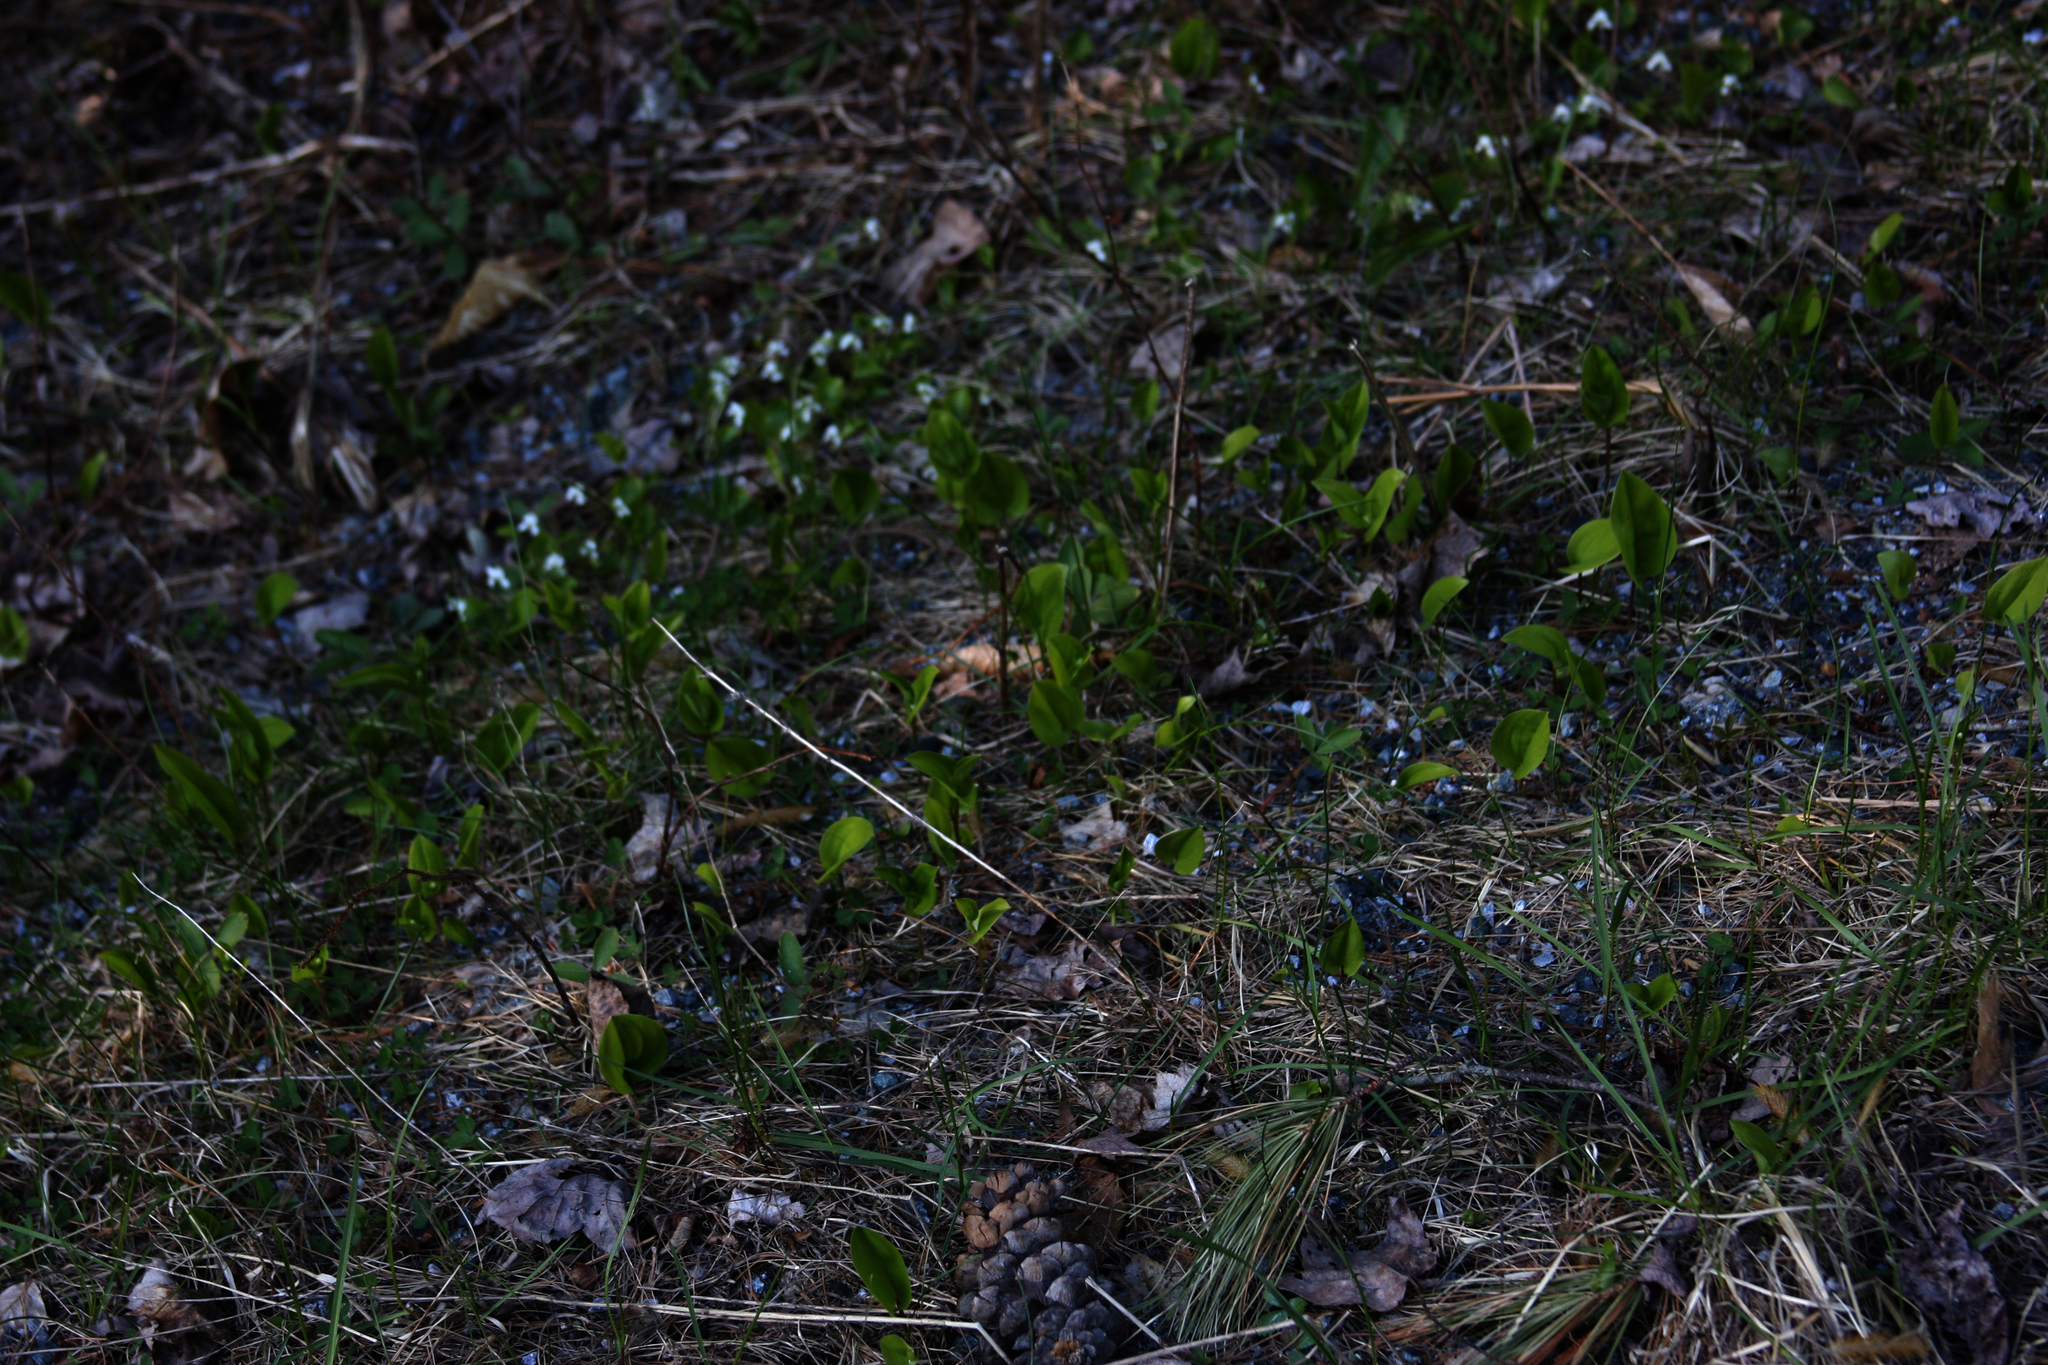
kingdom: Plantae
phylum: Tracheophyta
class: Liliopsida
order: Asparagales
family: Asparagaceae
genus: Maianthemum
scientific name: Maianthemum canadense
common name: False lily-of-the-valley
